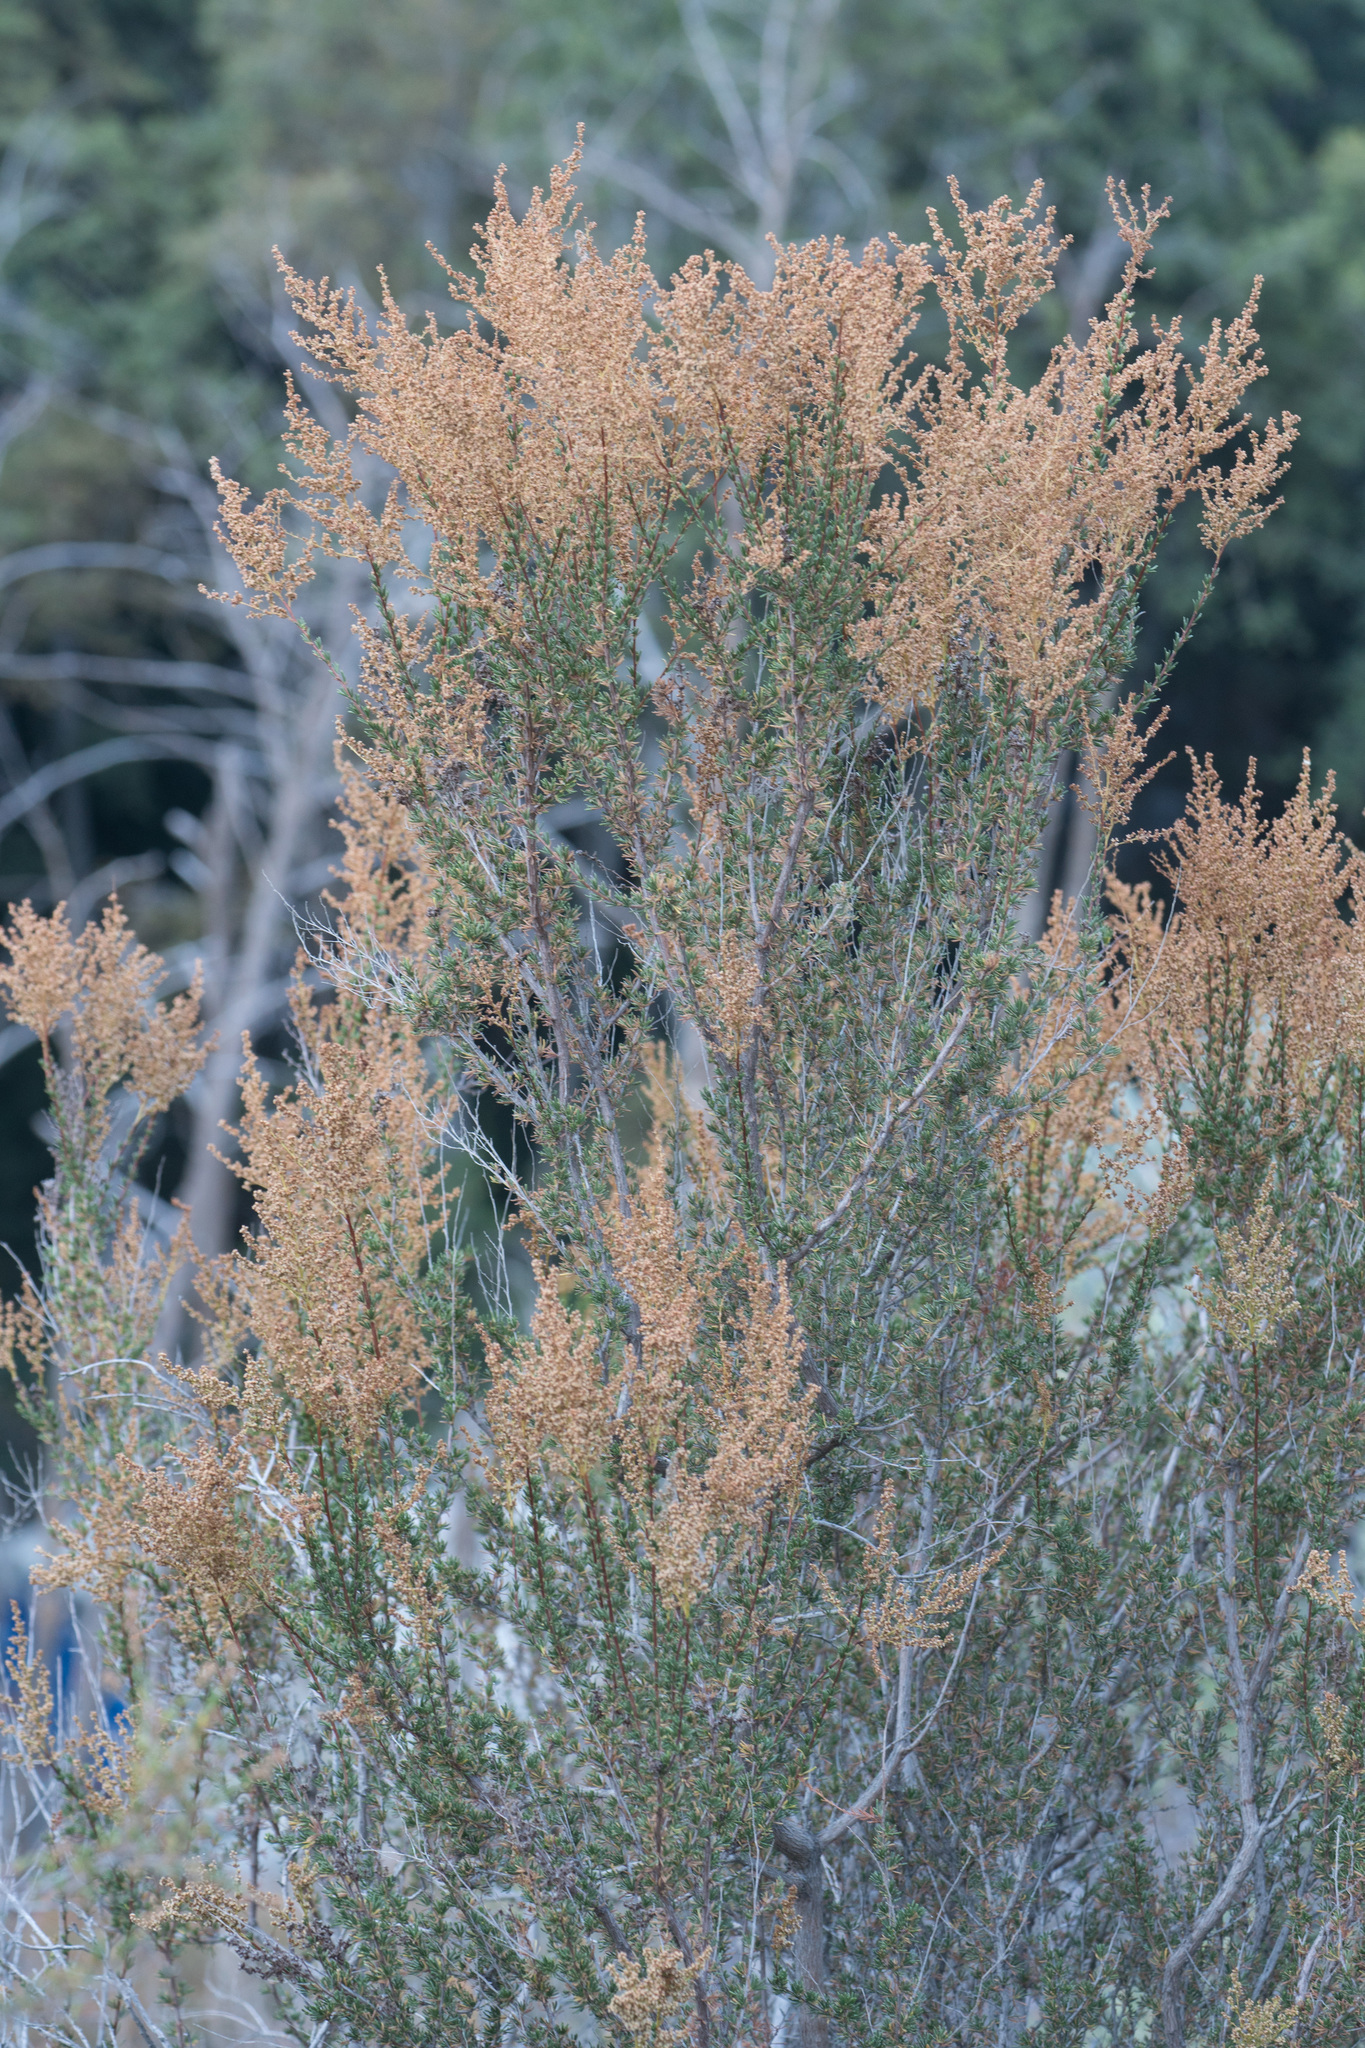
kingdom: Plantae
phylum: Tracheophyta
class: Magnoliopsida
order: Rosales
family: Rosaceae
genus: Adenostoma
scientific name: Adenostoma fasciculatum
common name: Chamise
